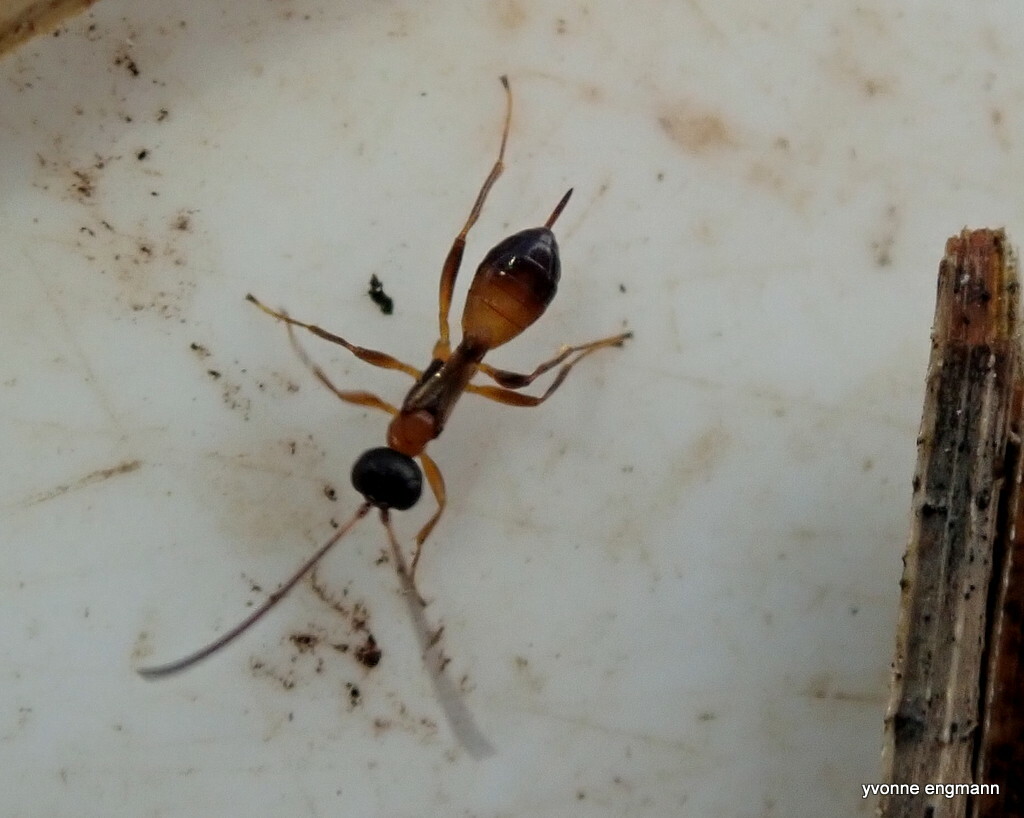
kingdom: Animalia
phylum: Arthropoda
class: Insecta
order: Hymenoptera
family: Ichneumonidae
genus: Gelis
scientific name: Gelis mangeri
